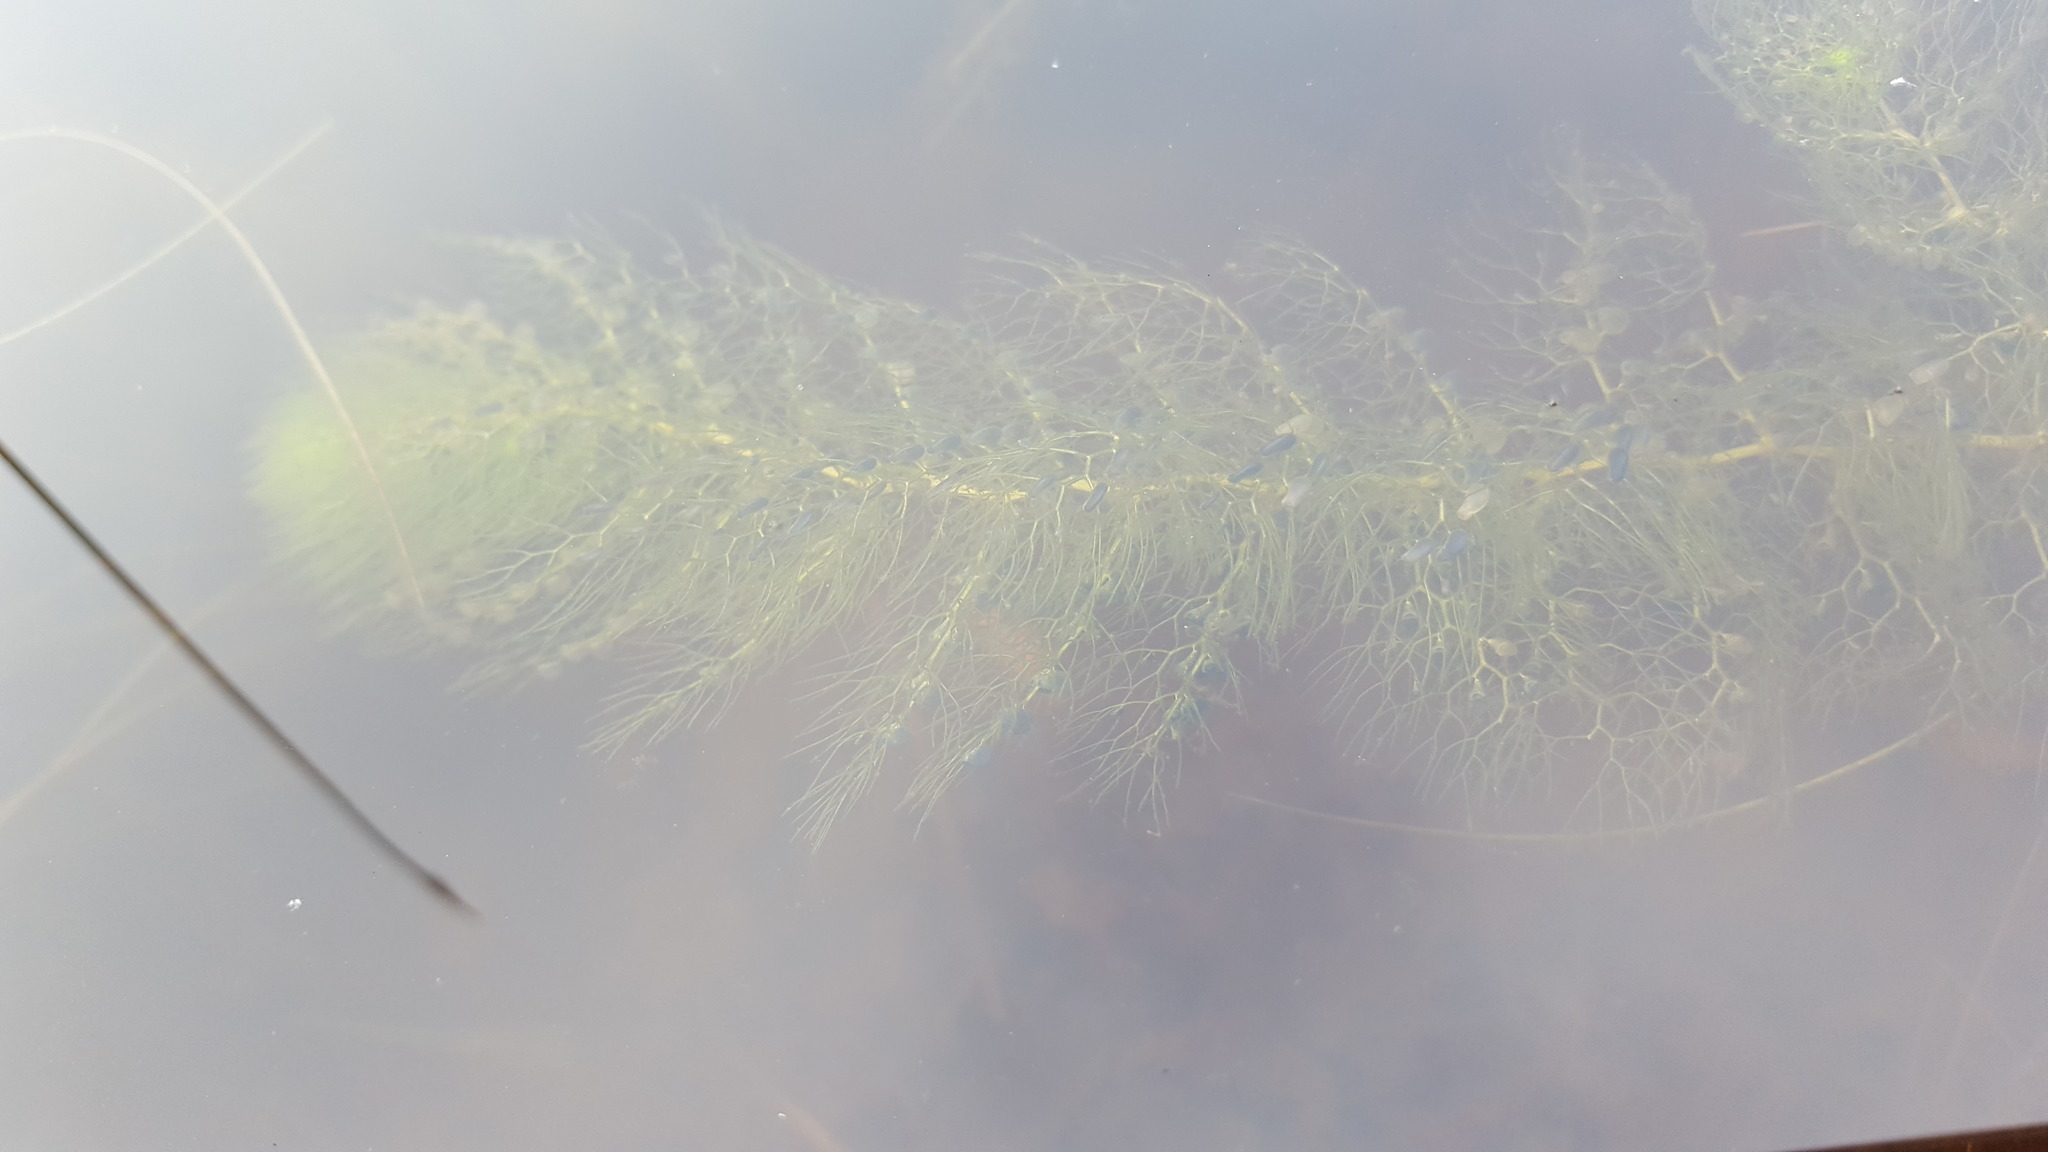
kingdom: Plantae
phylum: Tracheophyta
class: Magnoliopsida
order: Lamiales
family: Lentibulariaceae
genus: Utricularia
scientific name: Utricularia macrorhiza
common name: Common bladderwort
